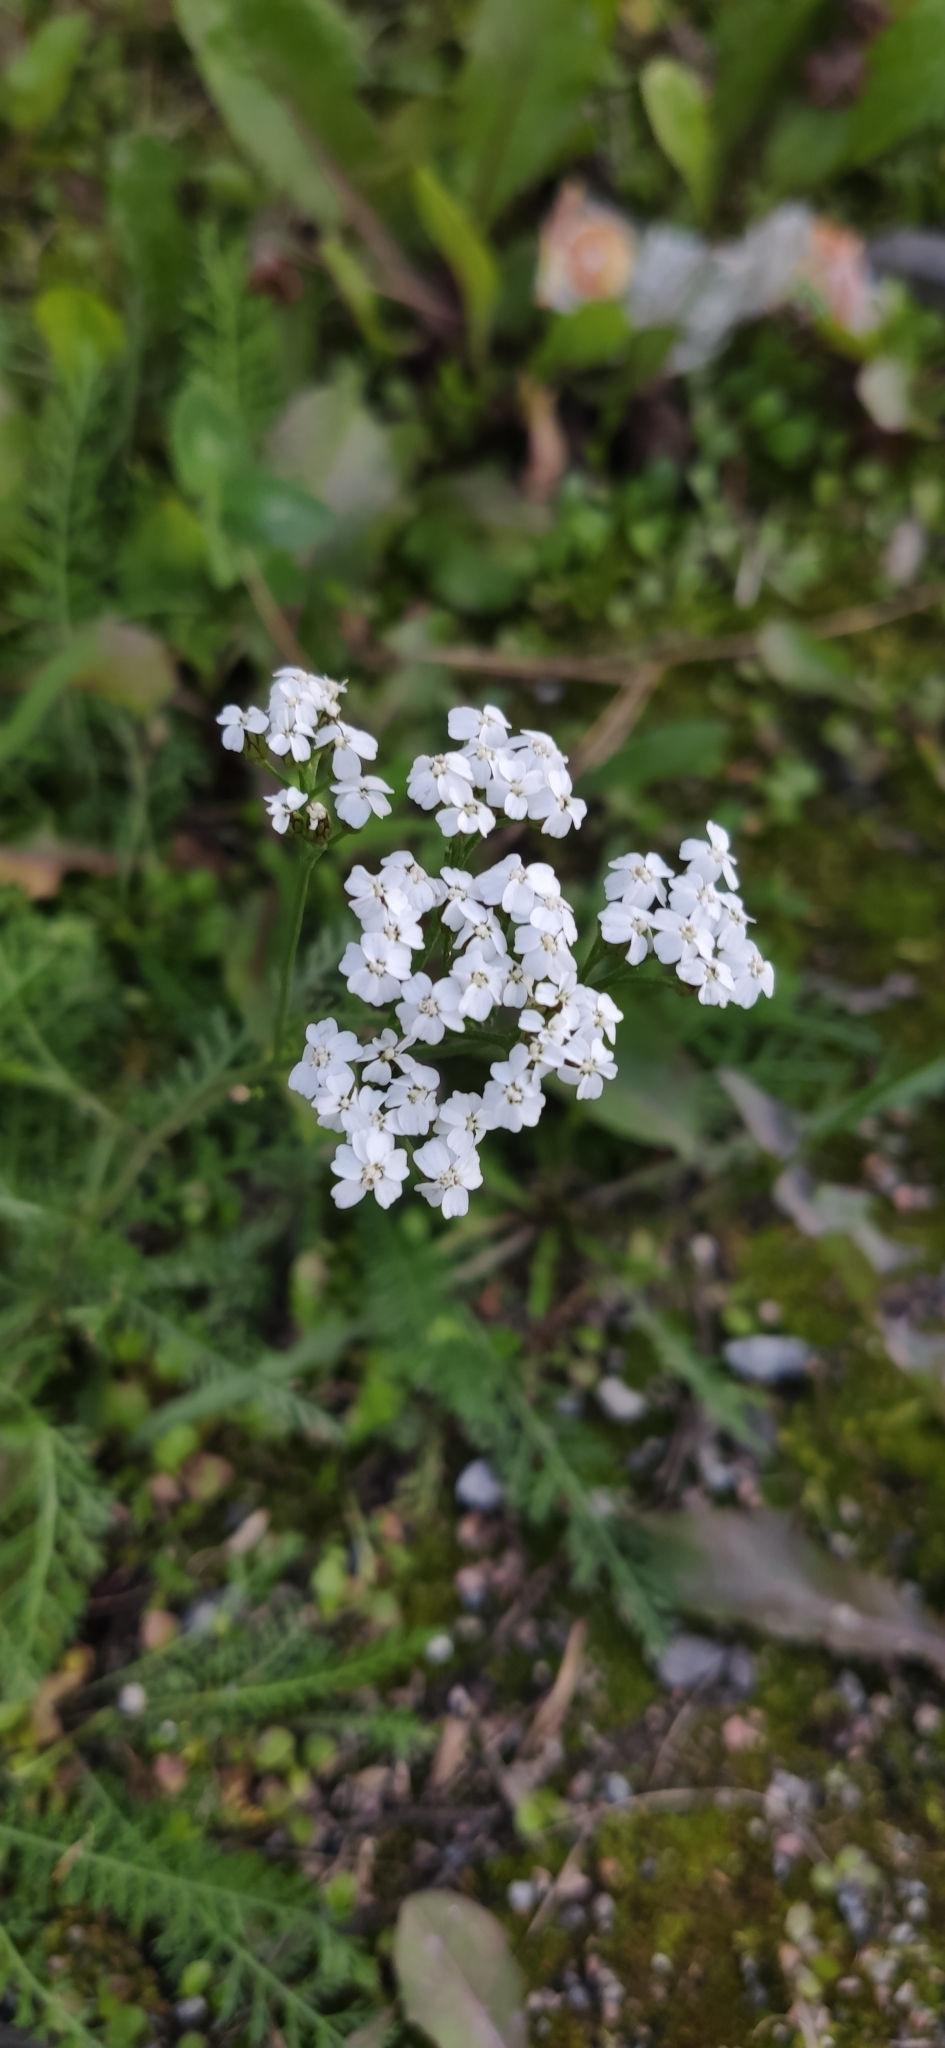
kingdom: Plantae
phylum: Tracheophyta
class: Magnoliopsida
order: Asterales
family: Asteraceae
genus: Achillea
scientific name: Achillea millefolium
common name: Yarrow
